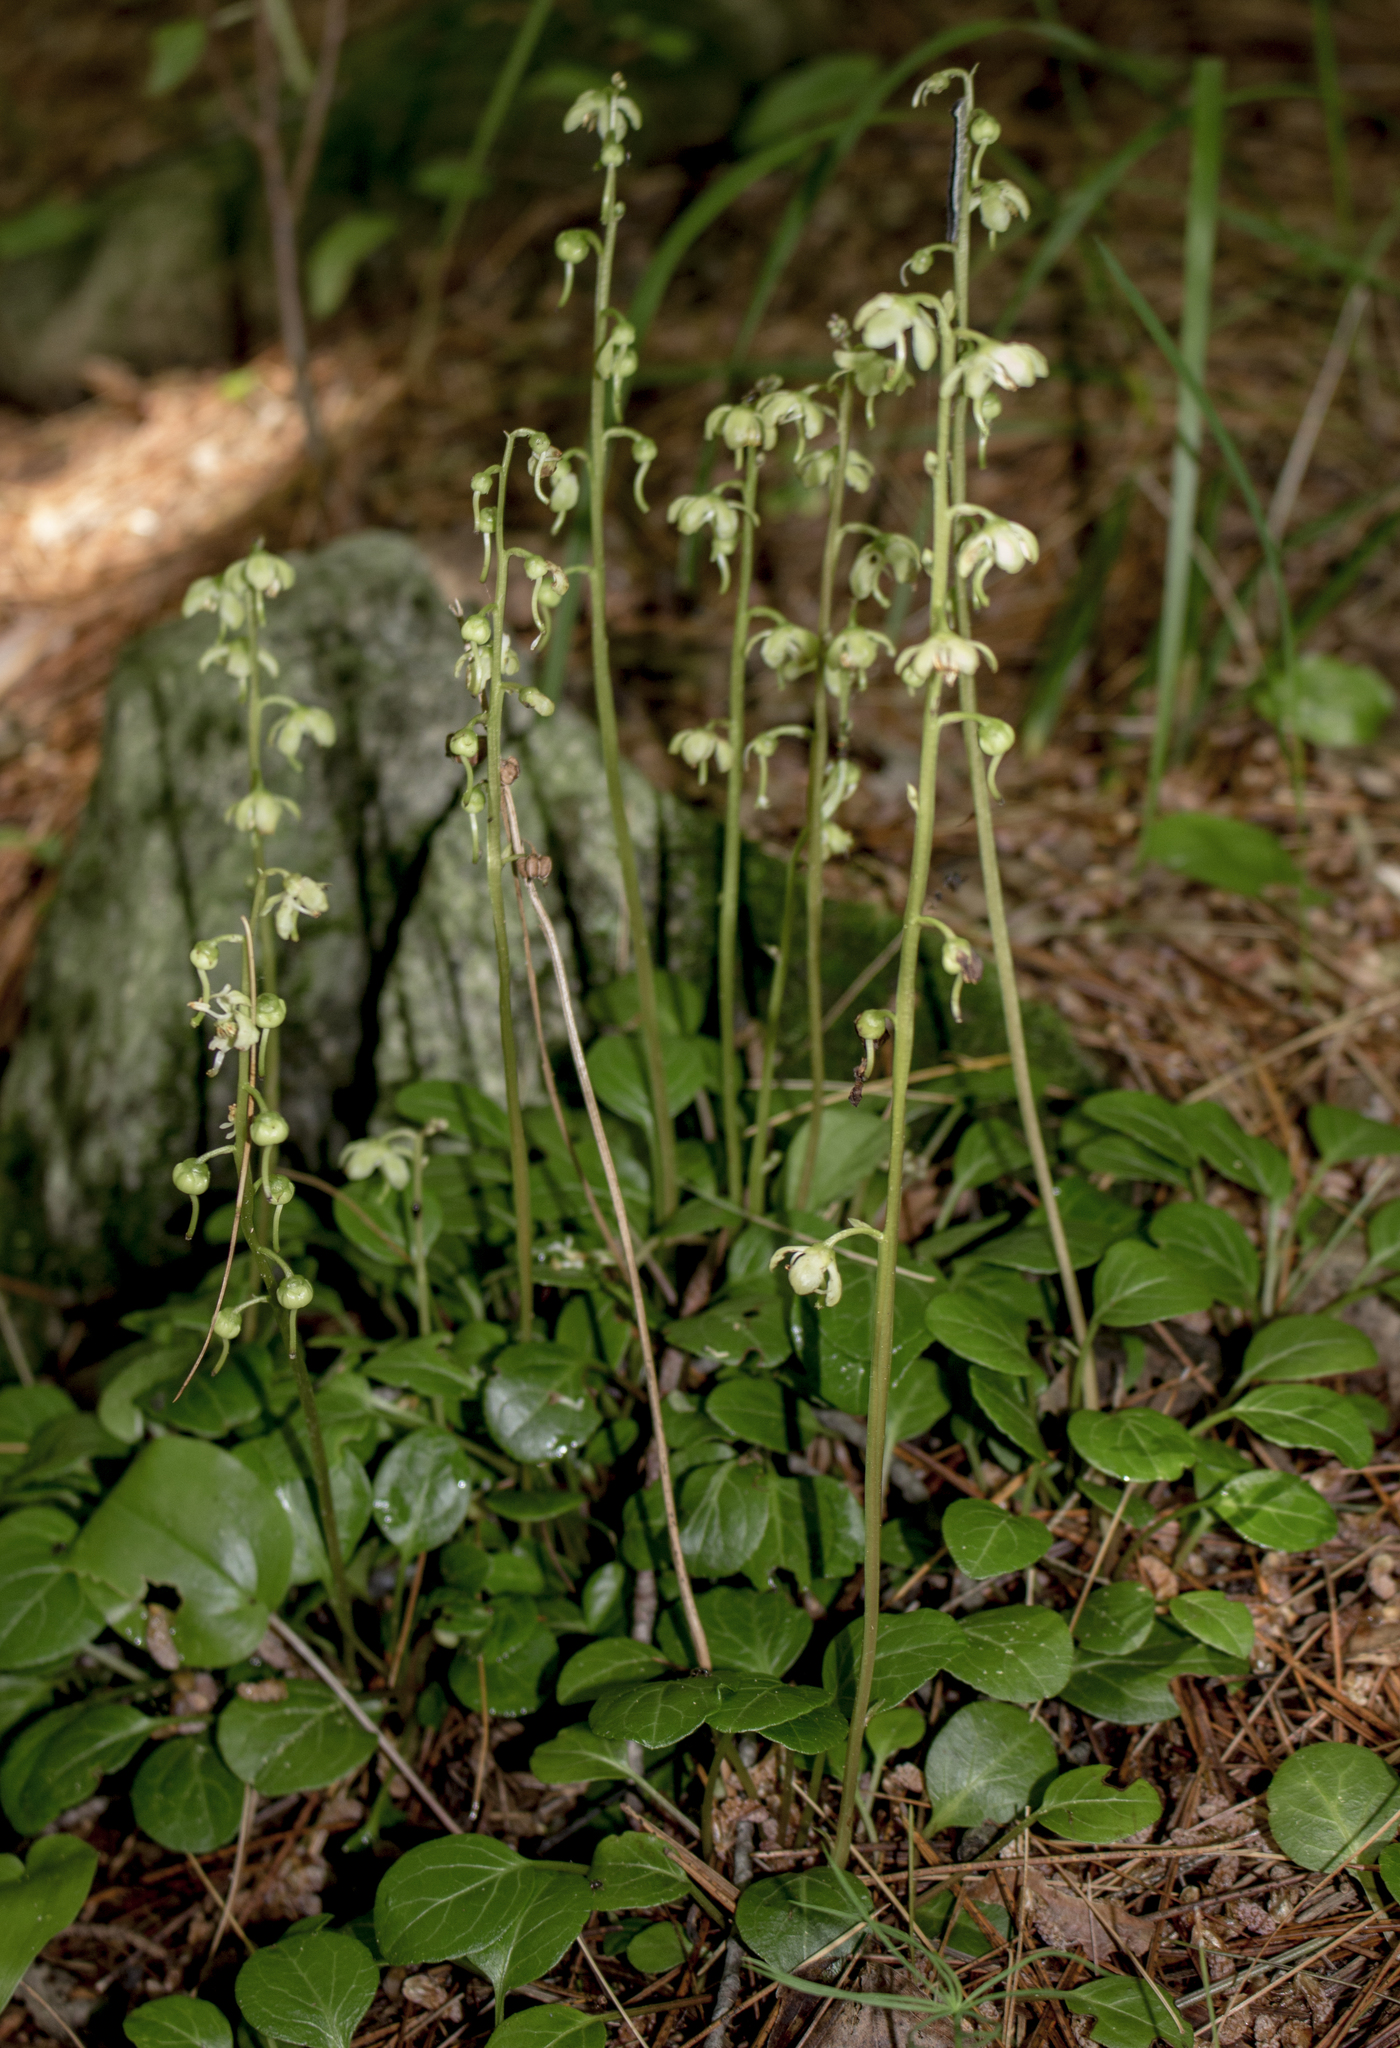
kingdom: Plantae
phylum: Tracheophyta
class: Magnoliopsida
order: Ericales
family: Ericaceae
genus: Pyrola
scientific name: Pyrola chlorantha
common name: Green wintergreen
